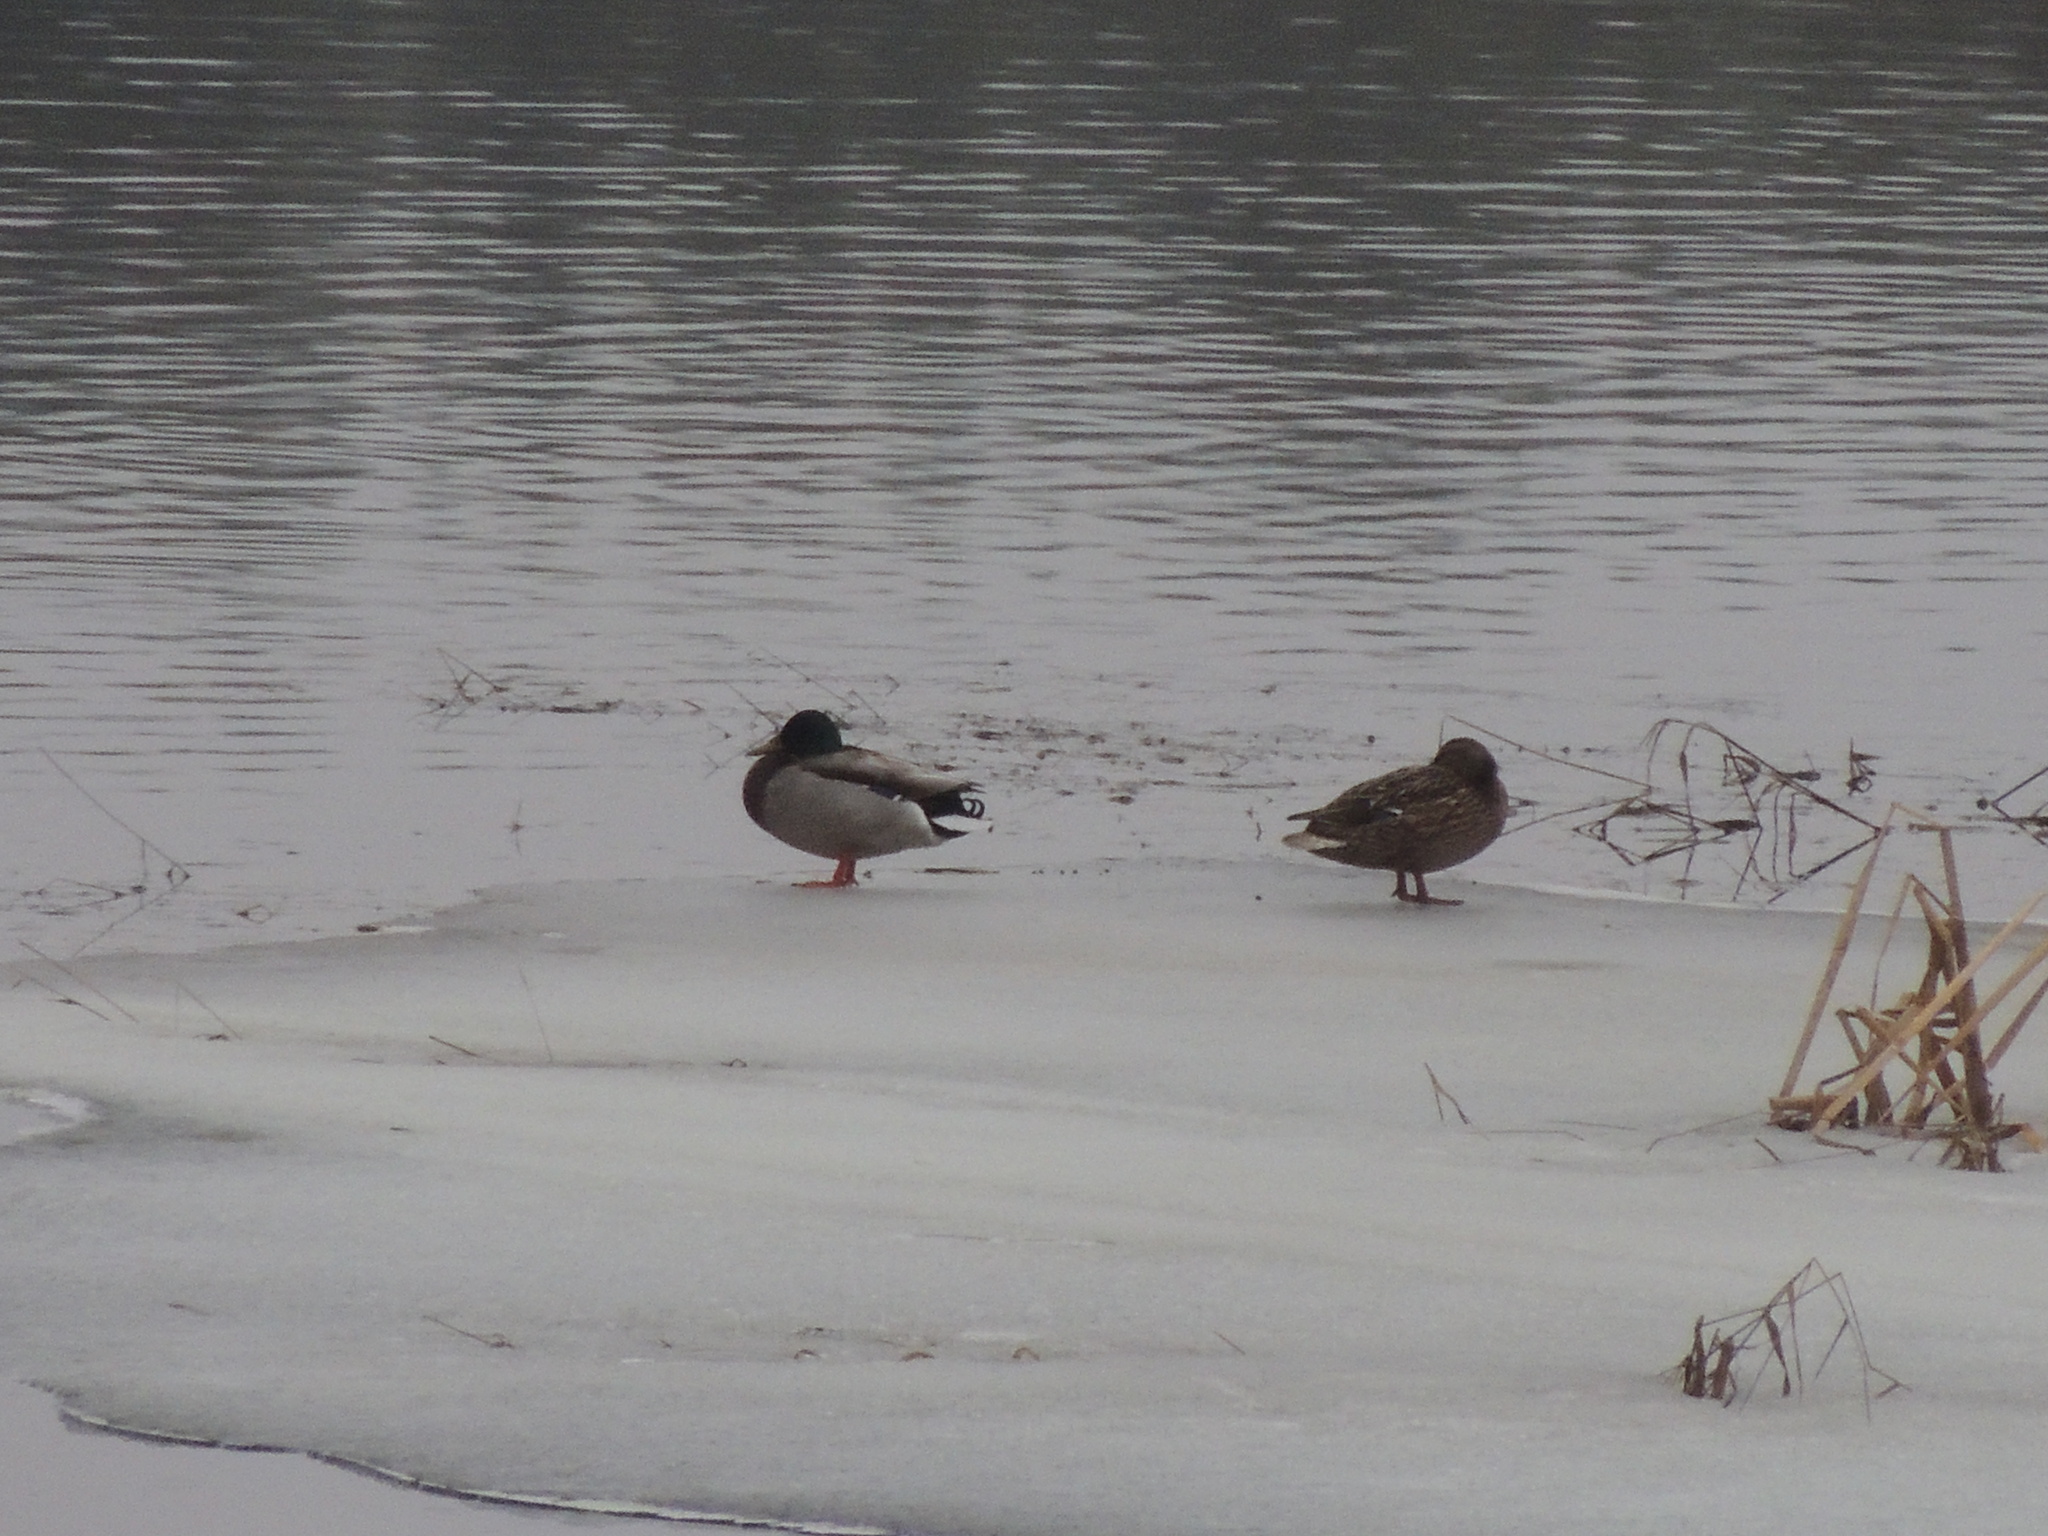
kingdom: Animalia
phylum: Chordata
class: Aves
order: Anseriformes
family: Anatidae
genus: Anas
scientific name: Anas platyrhynchos
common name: Mallard
